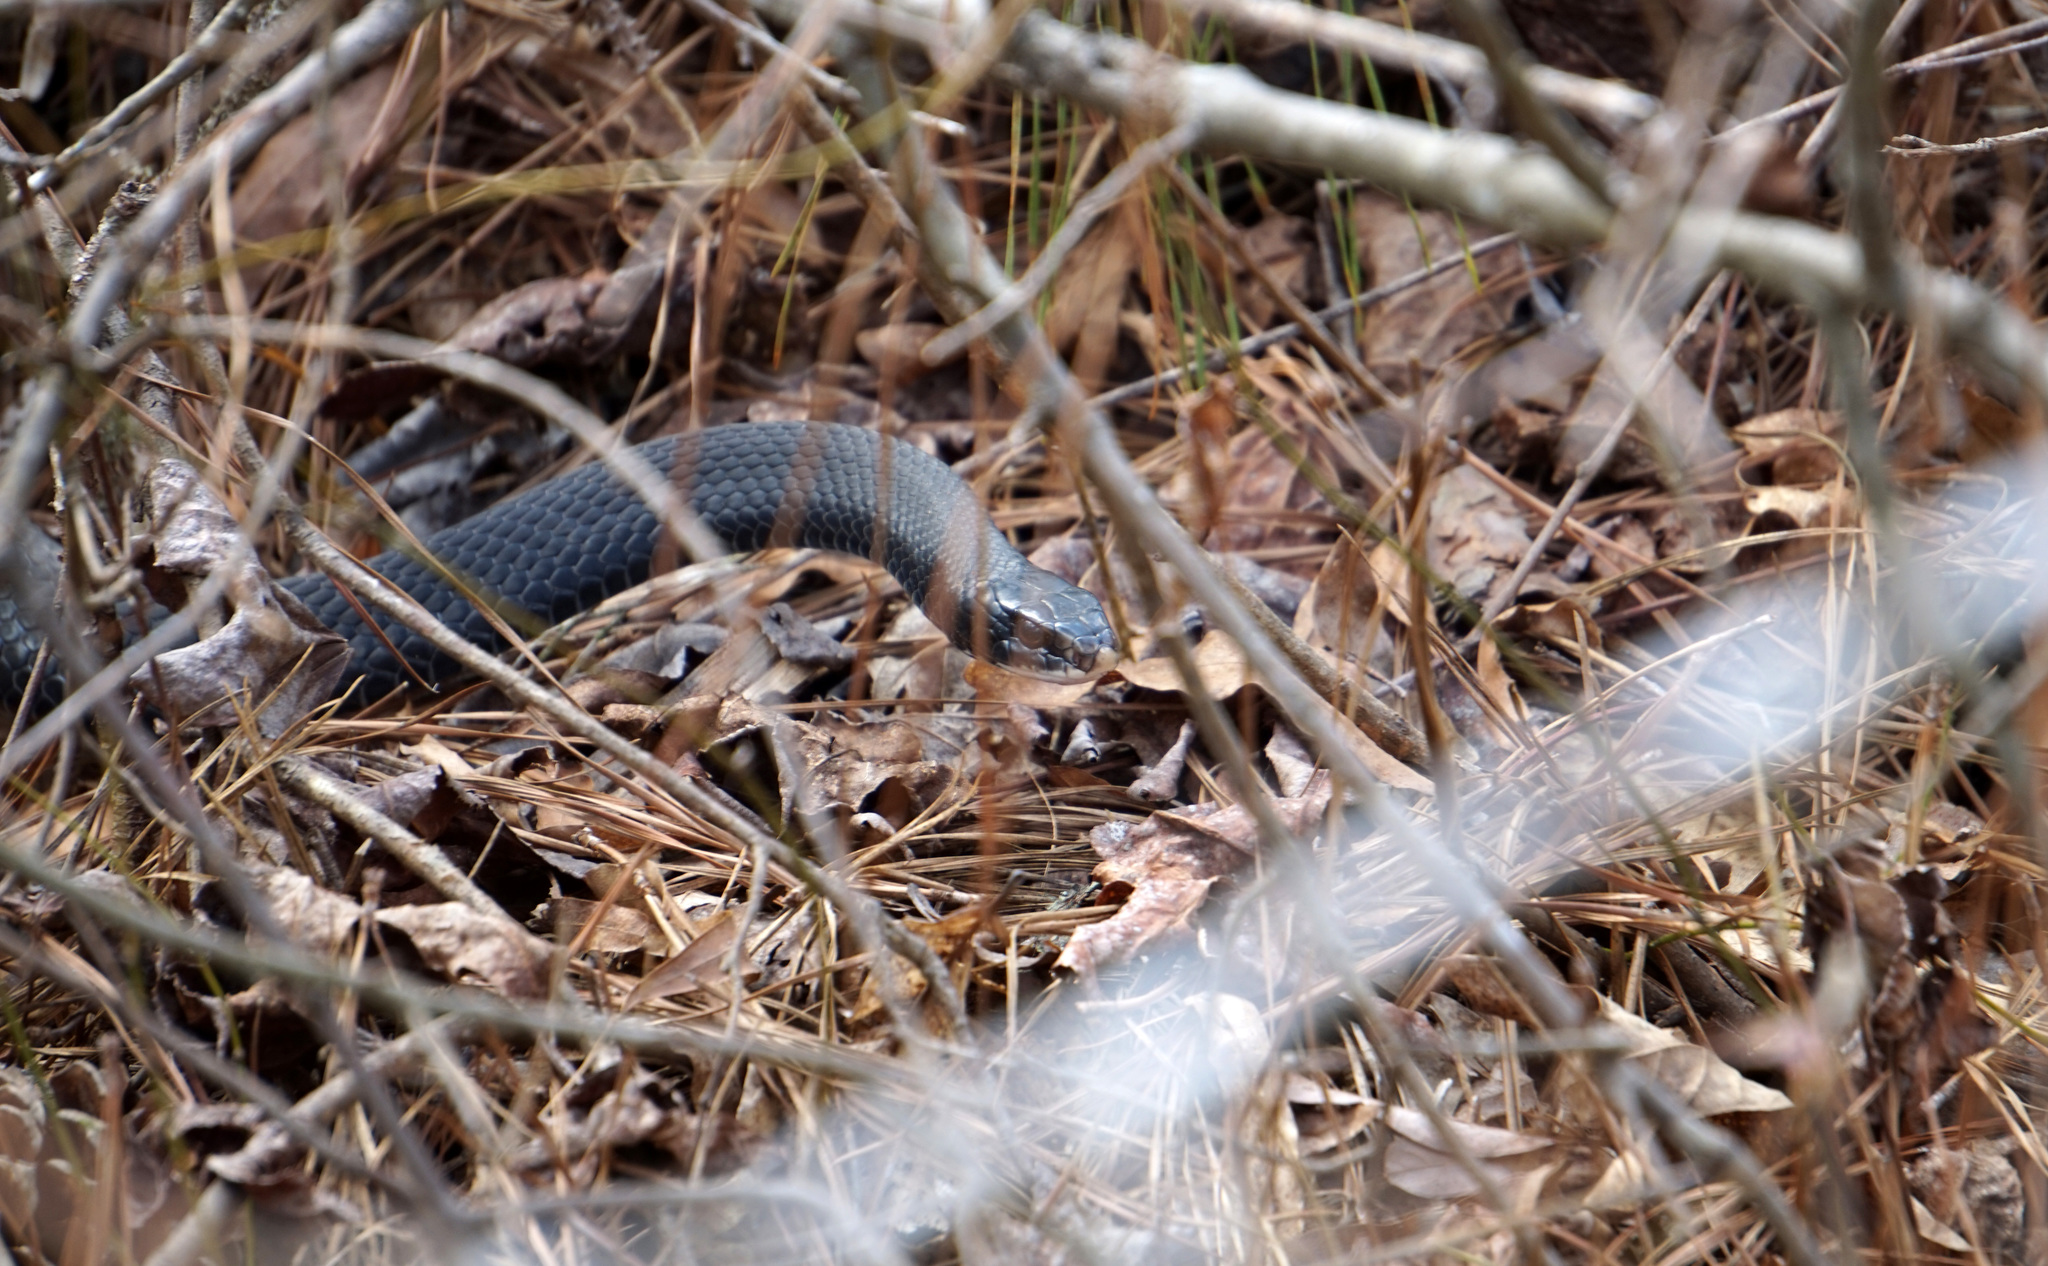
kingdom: Animalia
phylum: Chordata
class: Squamata
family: Colubridae
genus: Coluber
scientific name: Coluber constrictor
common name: Eastern racer
